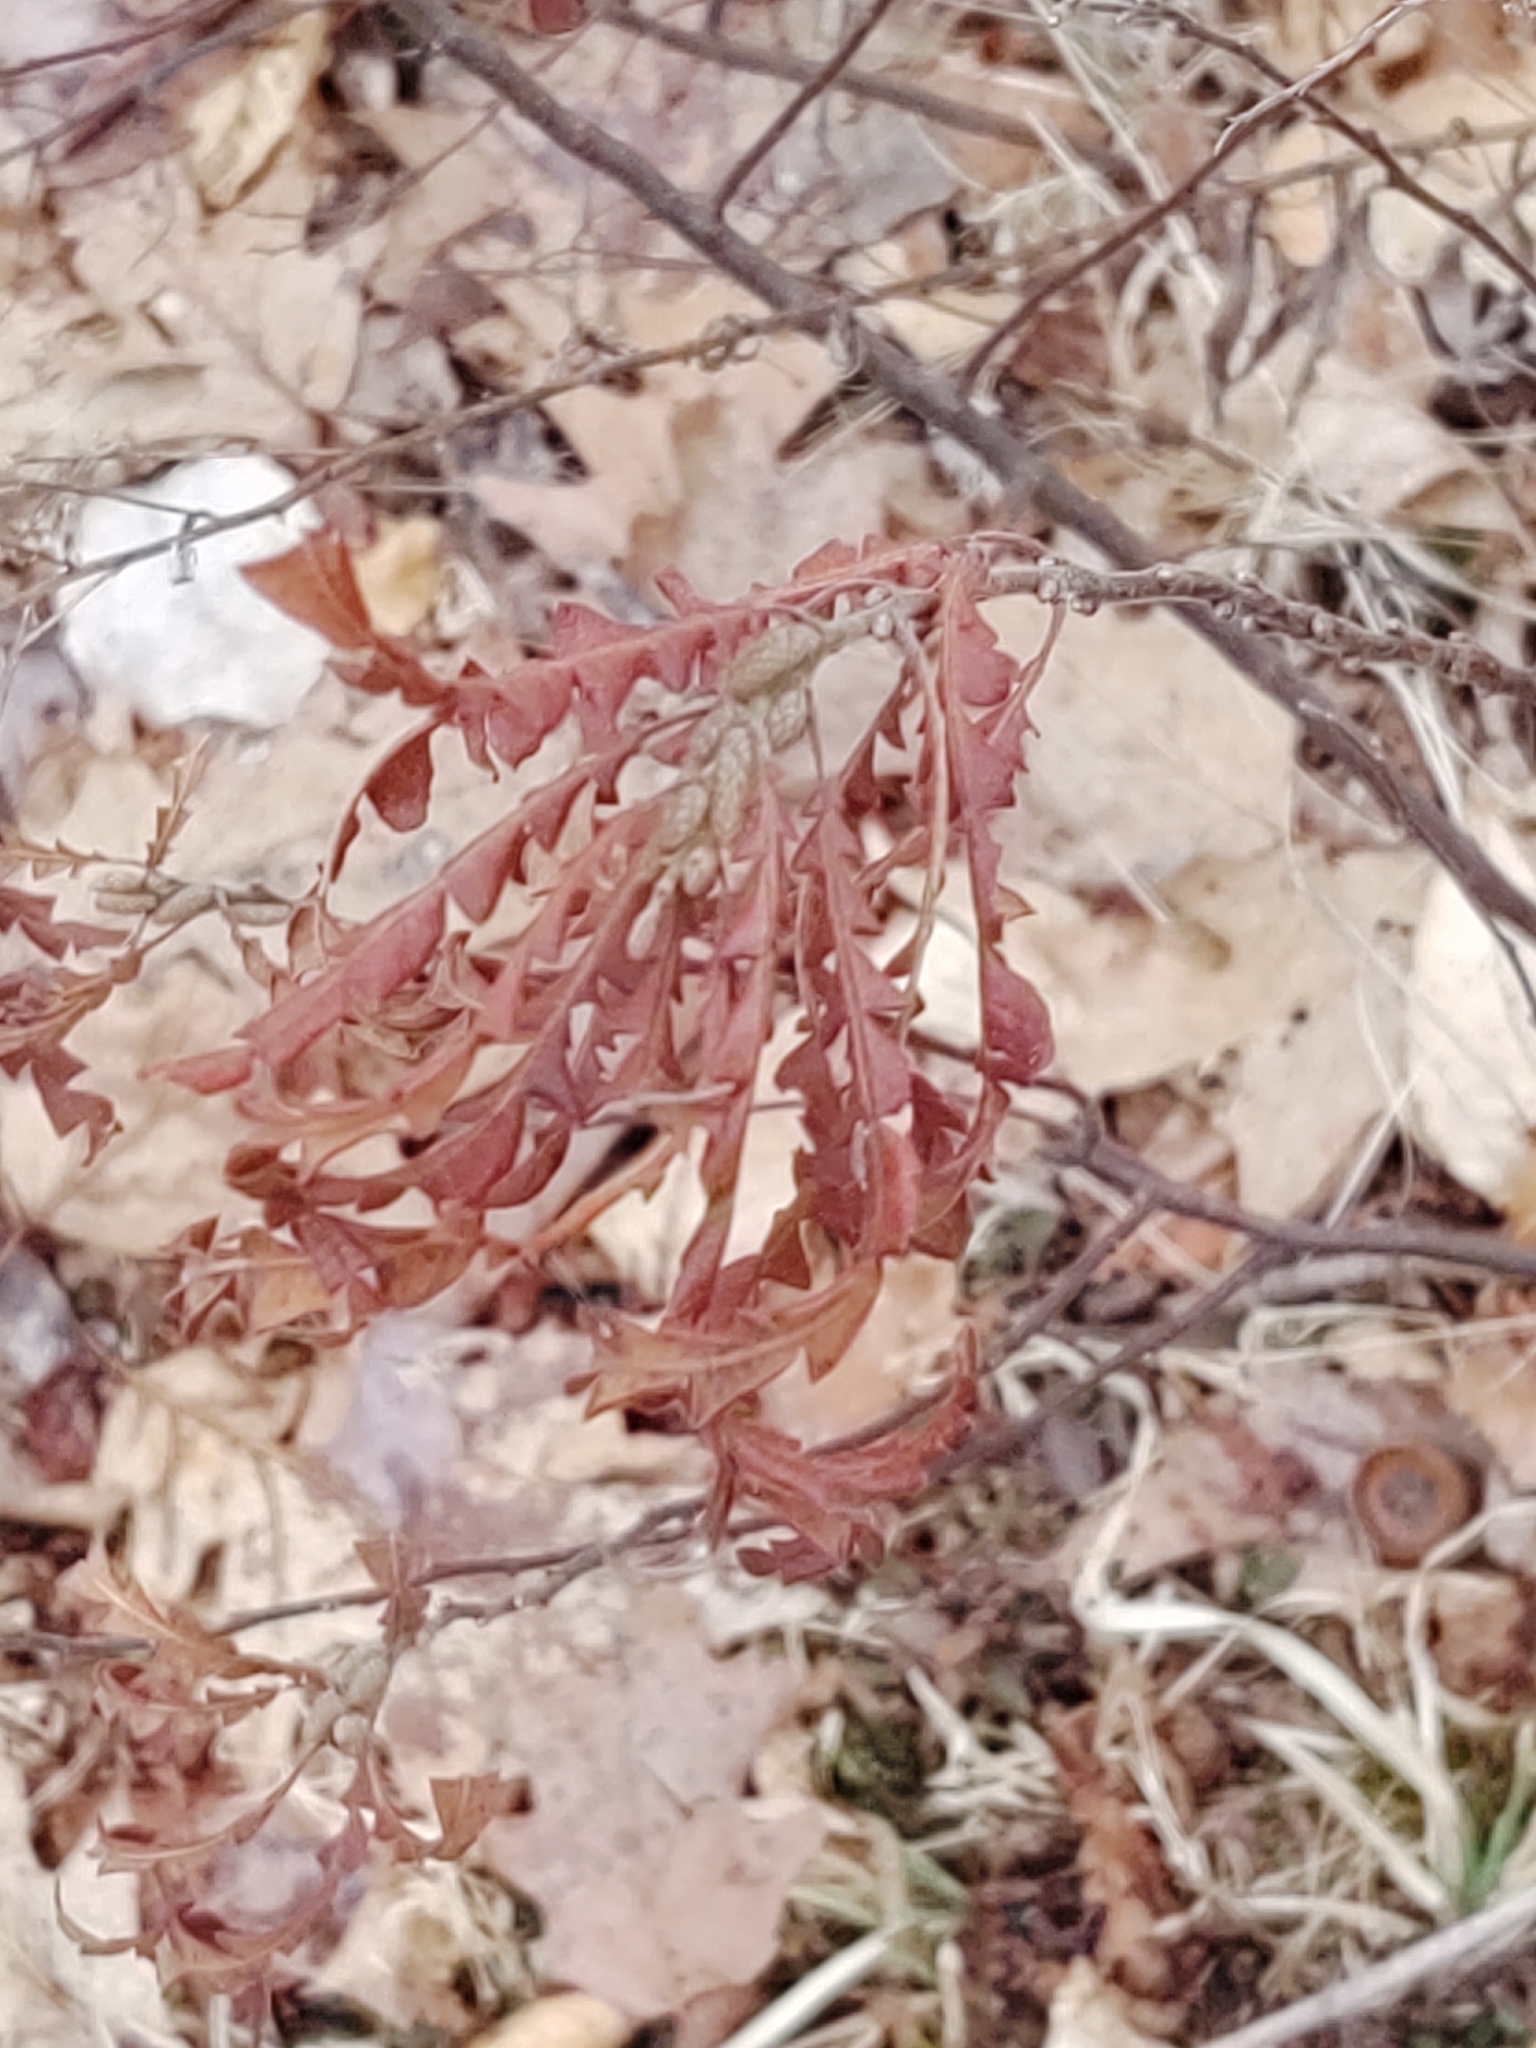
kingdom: Plantae
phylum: Tracheophyta
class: Magnoliopsida
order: Fagales
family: Myricaceae
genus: Comptonia
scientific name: Comptonia peregrina
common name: Sweet-fern
